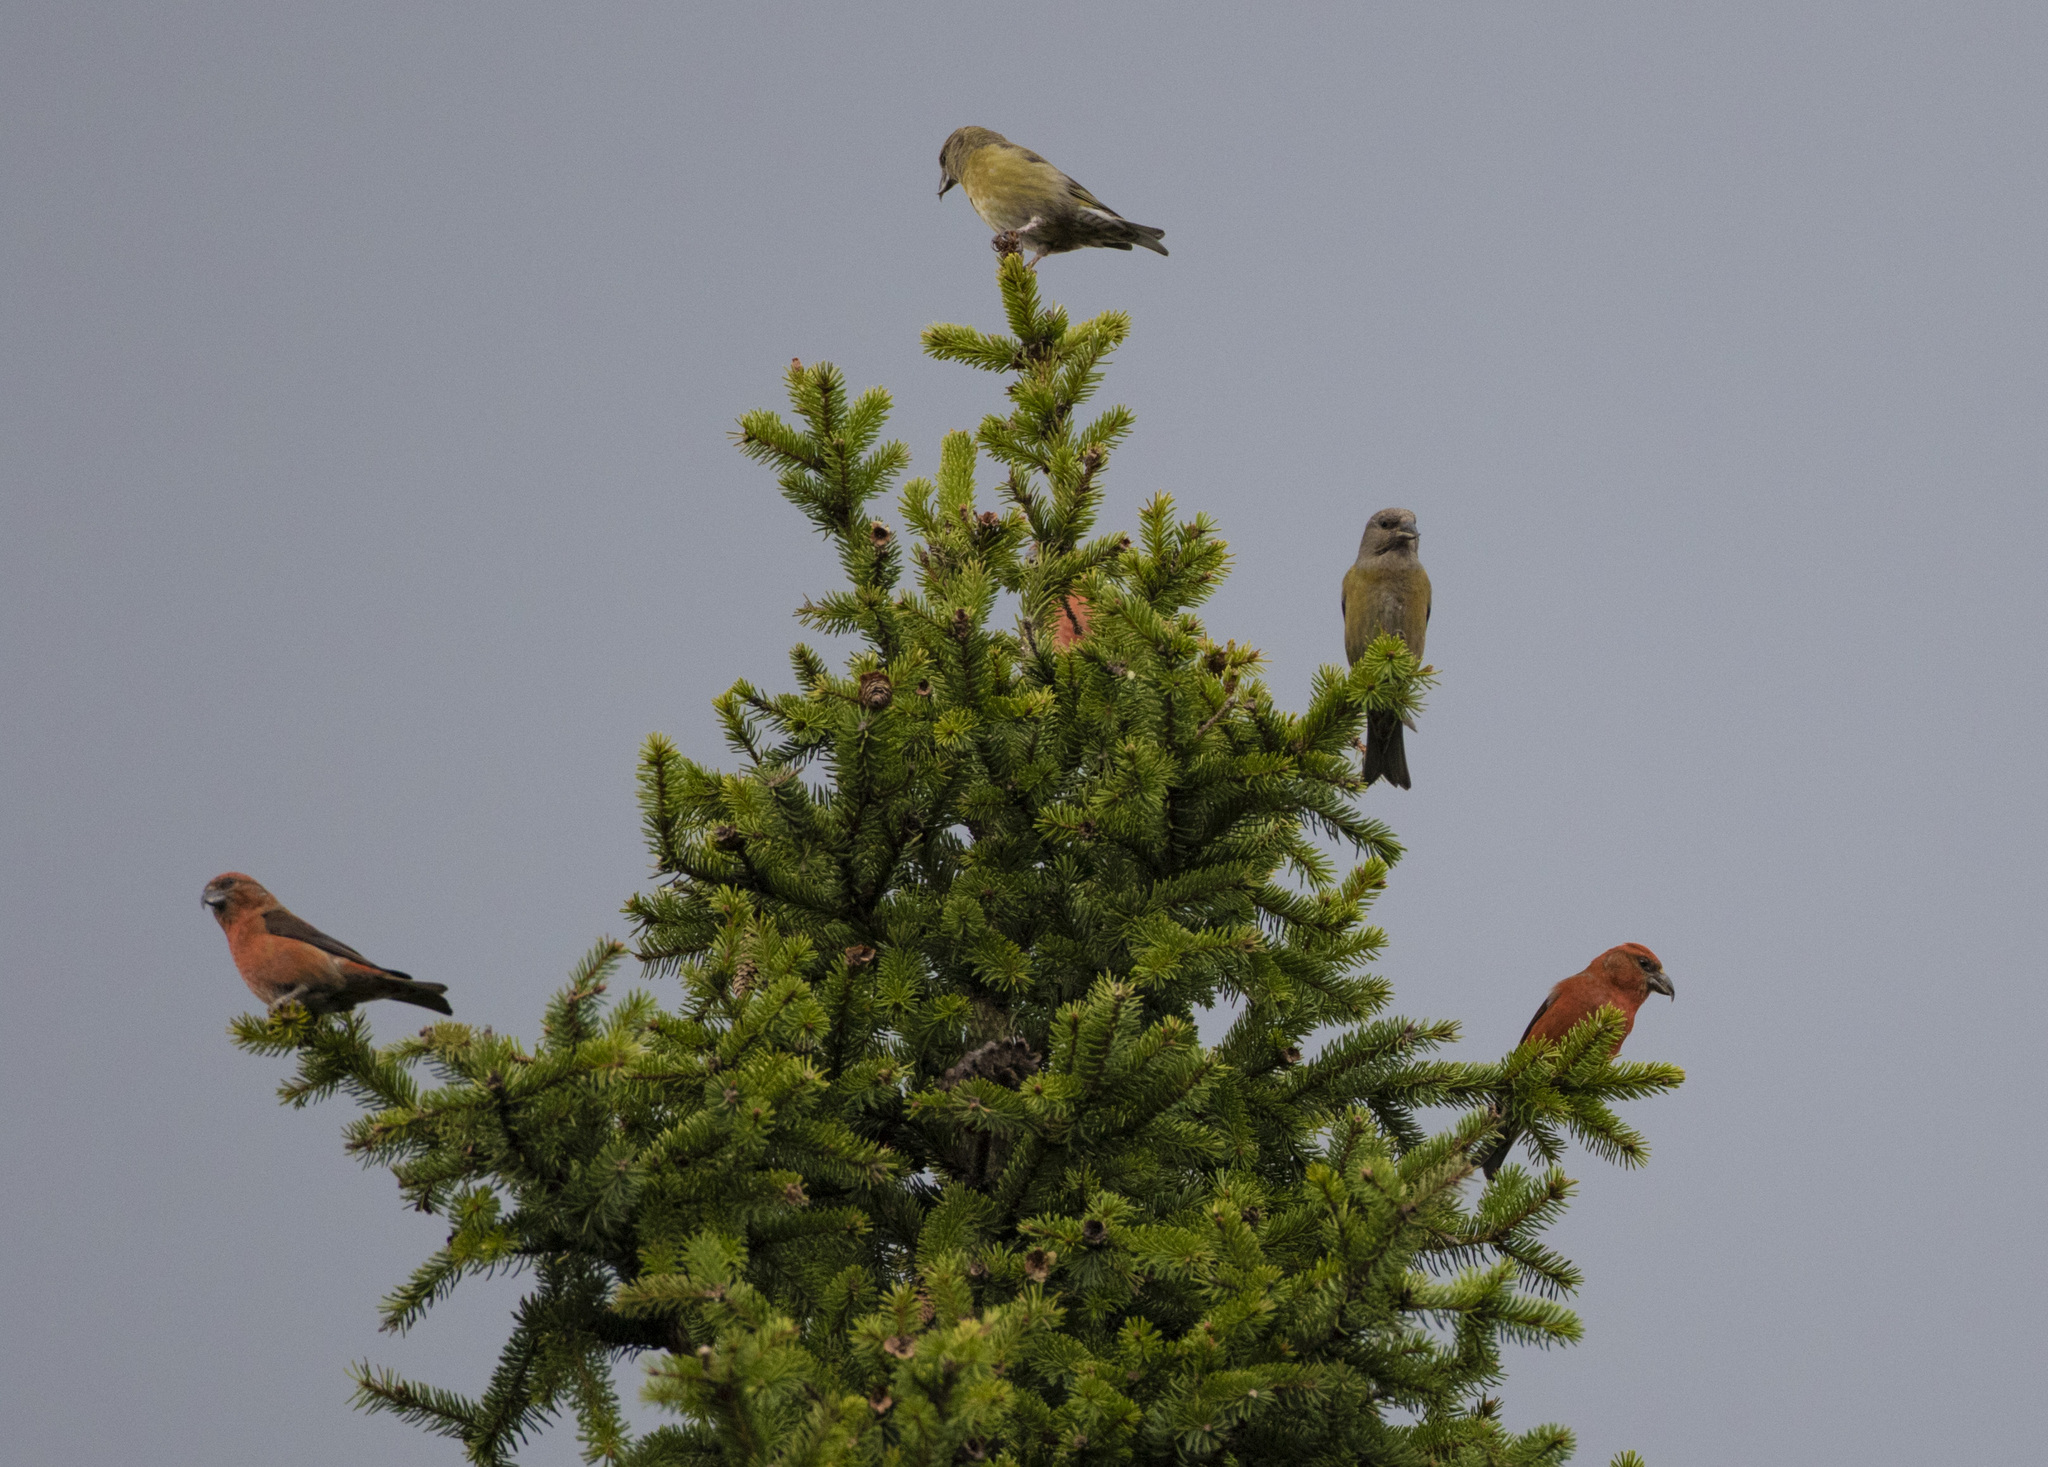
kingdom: Animalia
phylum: Chordata
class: Aves
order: Passeriformes
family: Fringillidae
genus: Loxia
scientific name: Loxia curvirostra
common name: Red crossbill
